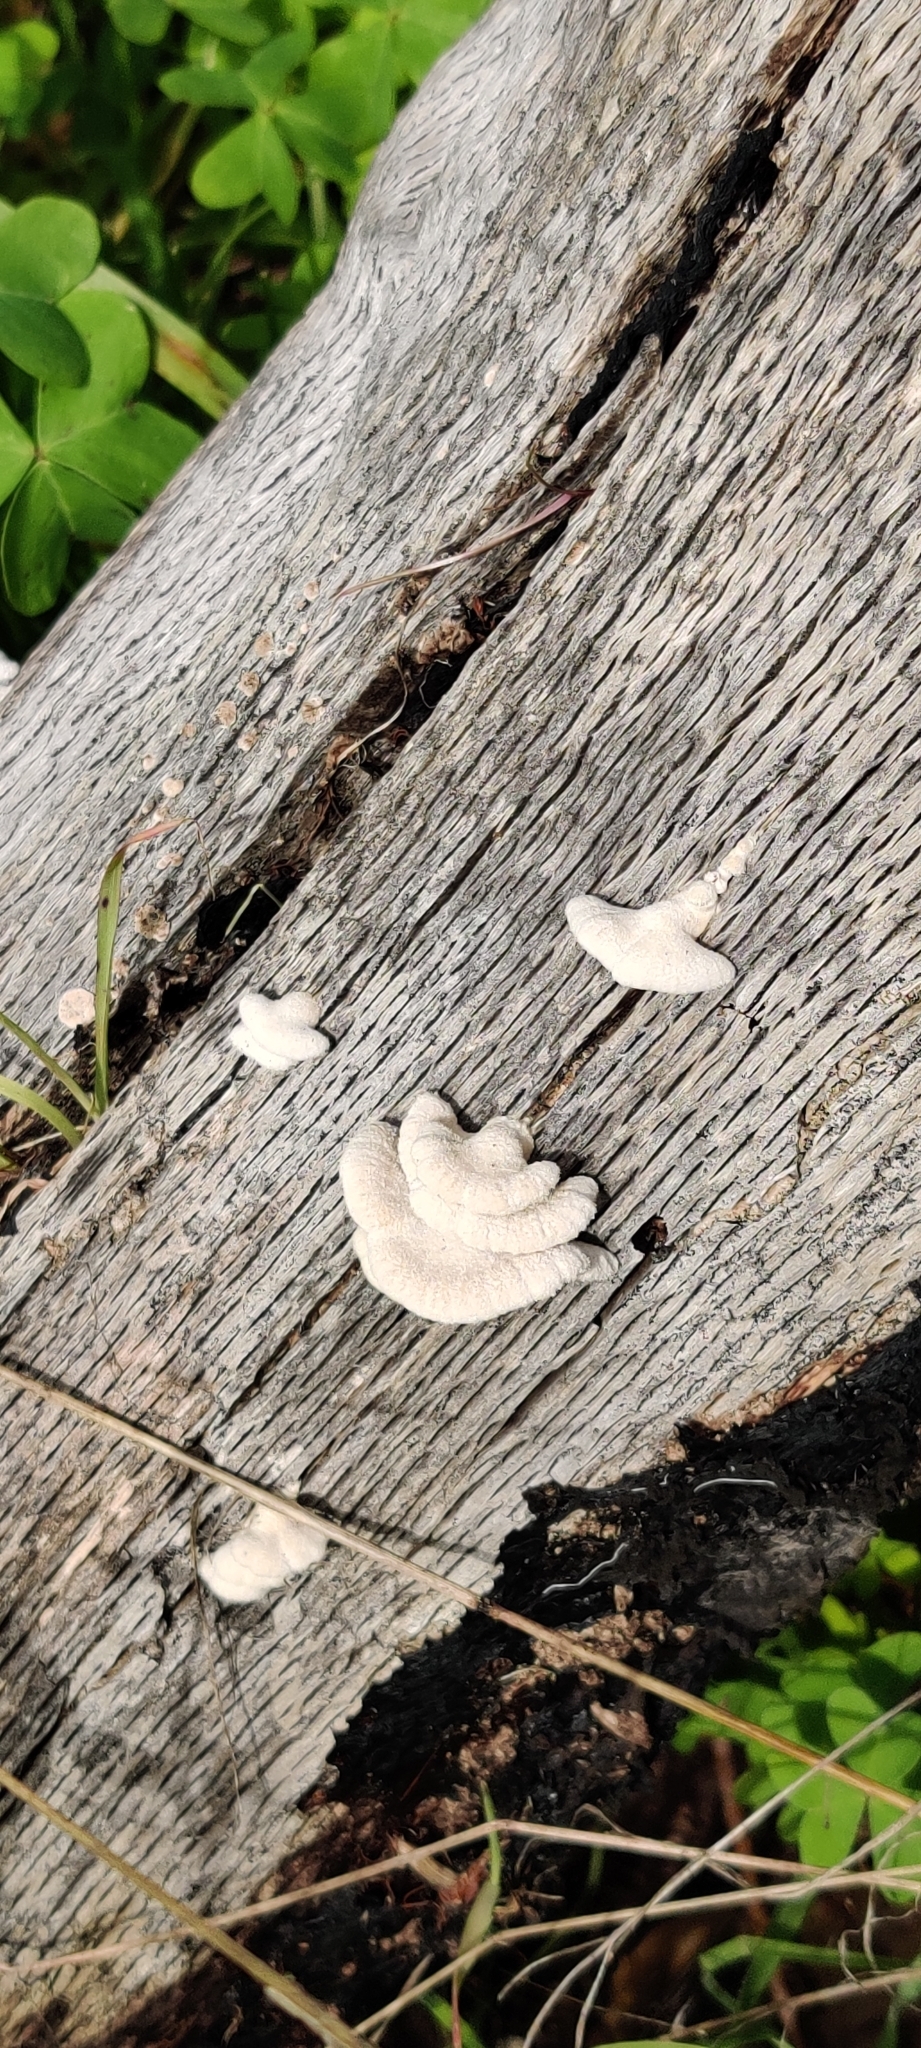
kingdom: Fungi
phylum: Basidiomycota
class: Agaricomycetes
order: Agaricales
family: Schizophyllaceae
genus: Schizophyllum
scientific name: Schizophyllum commune
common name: Common porecrust
